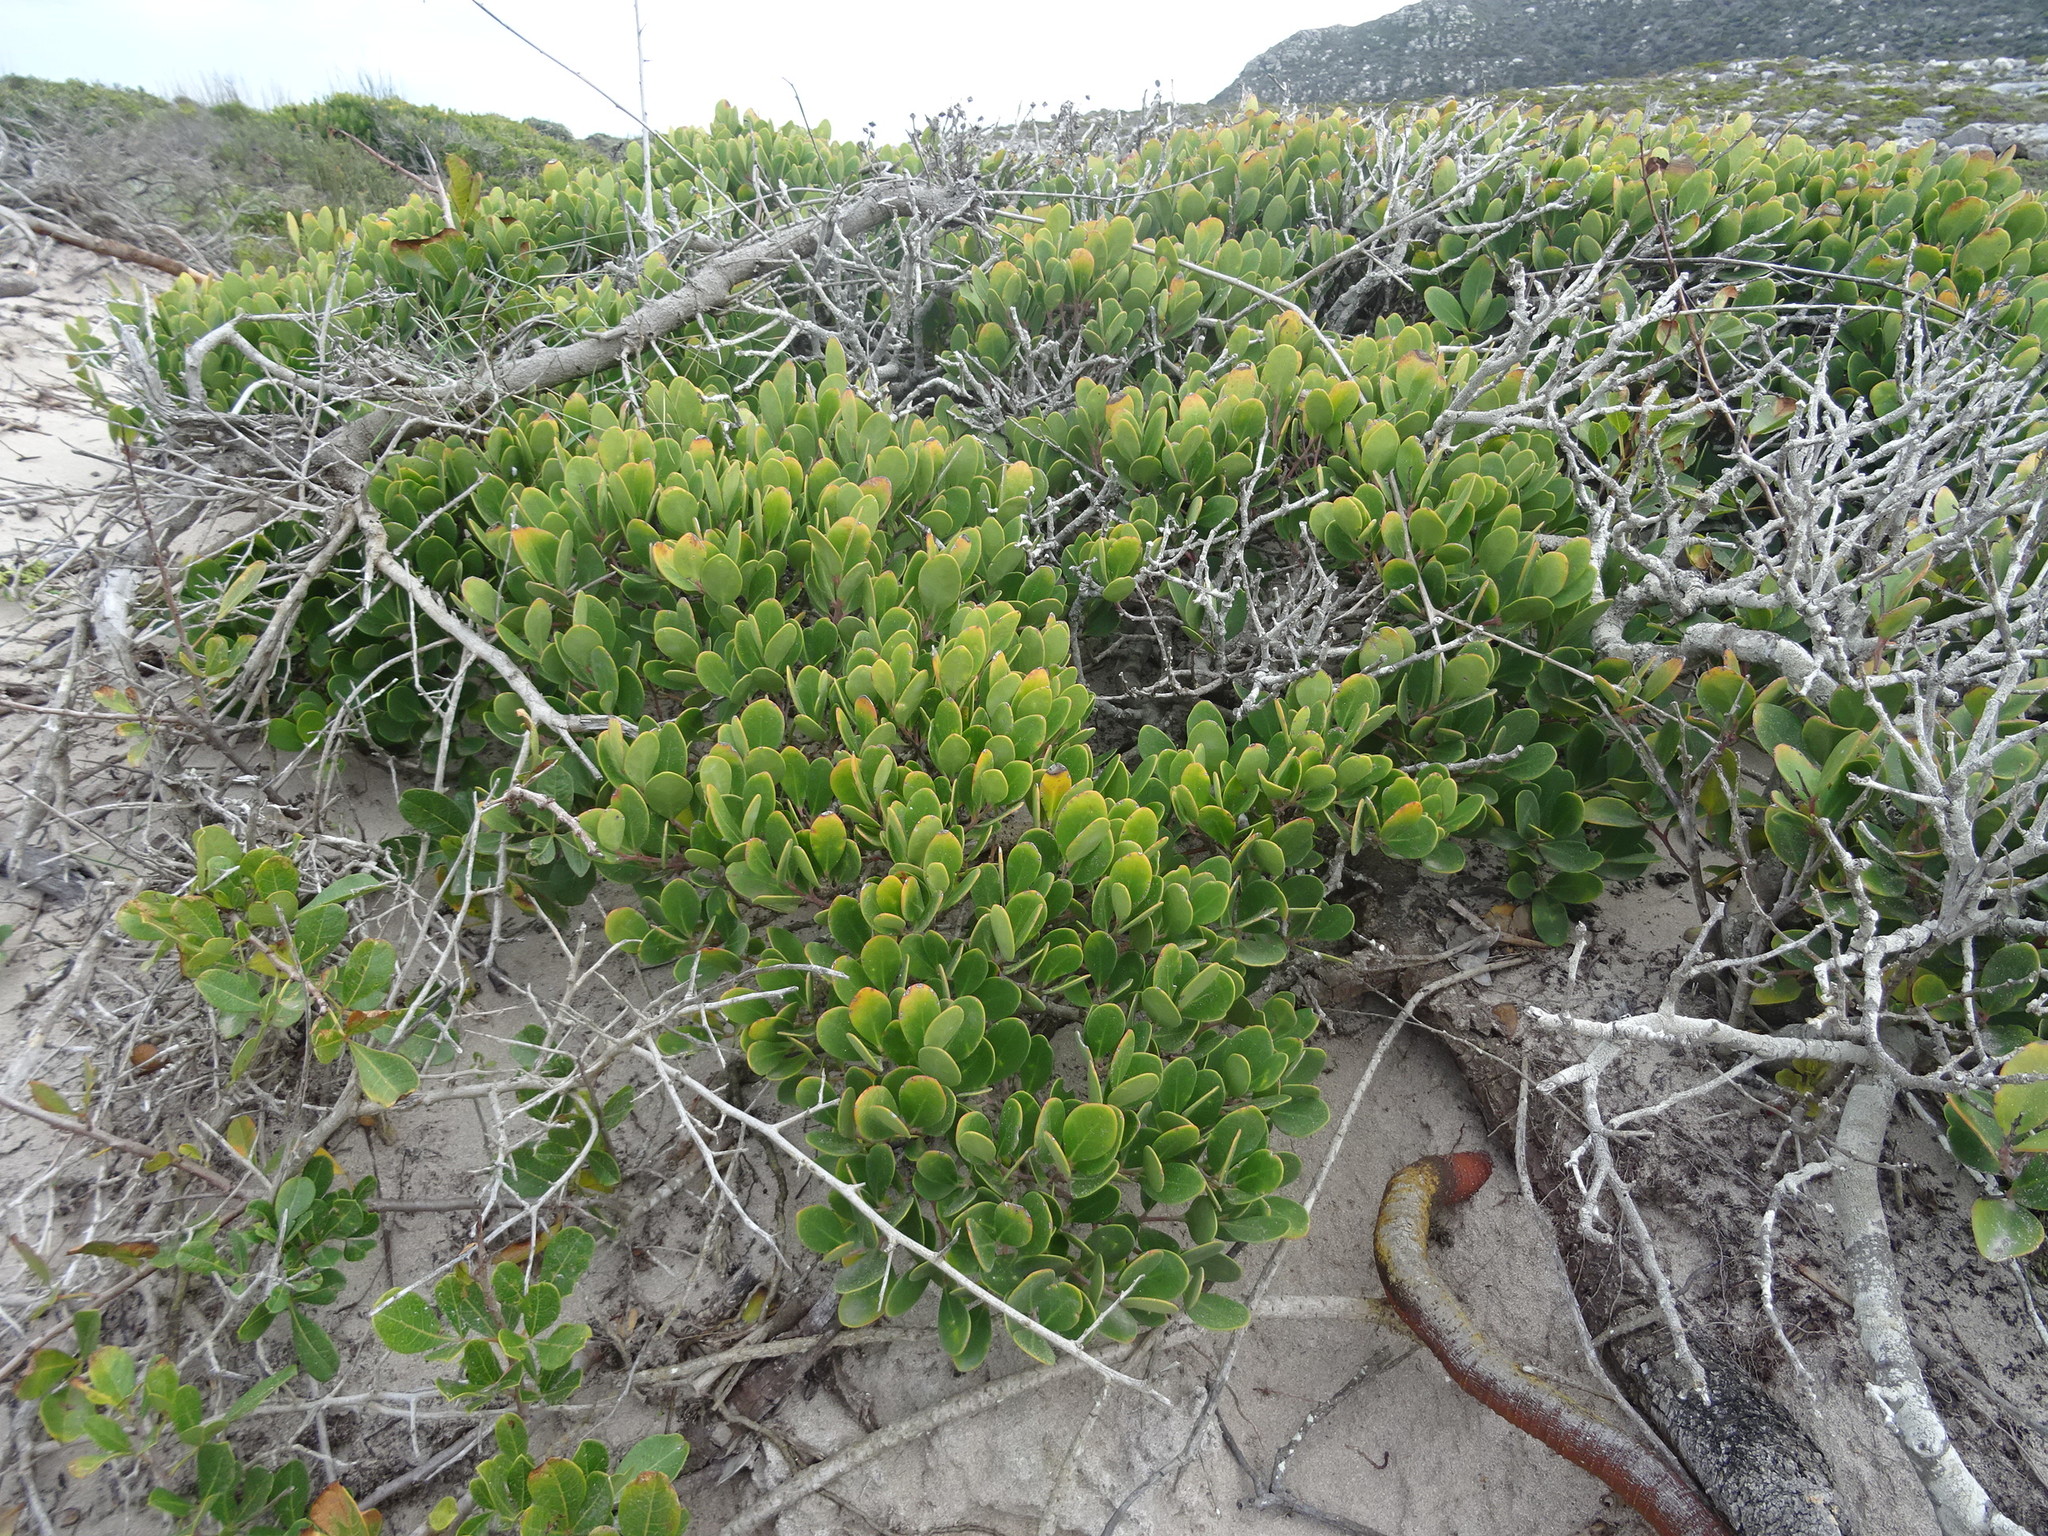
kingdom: Plantae
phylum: Tracheophyta
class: Magnoliopsida
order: Celastrales
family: Celastraceae
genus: Pterocelastrus
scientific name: Pterocelastrus tricuspidatus
